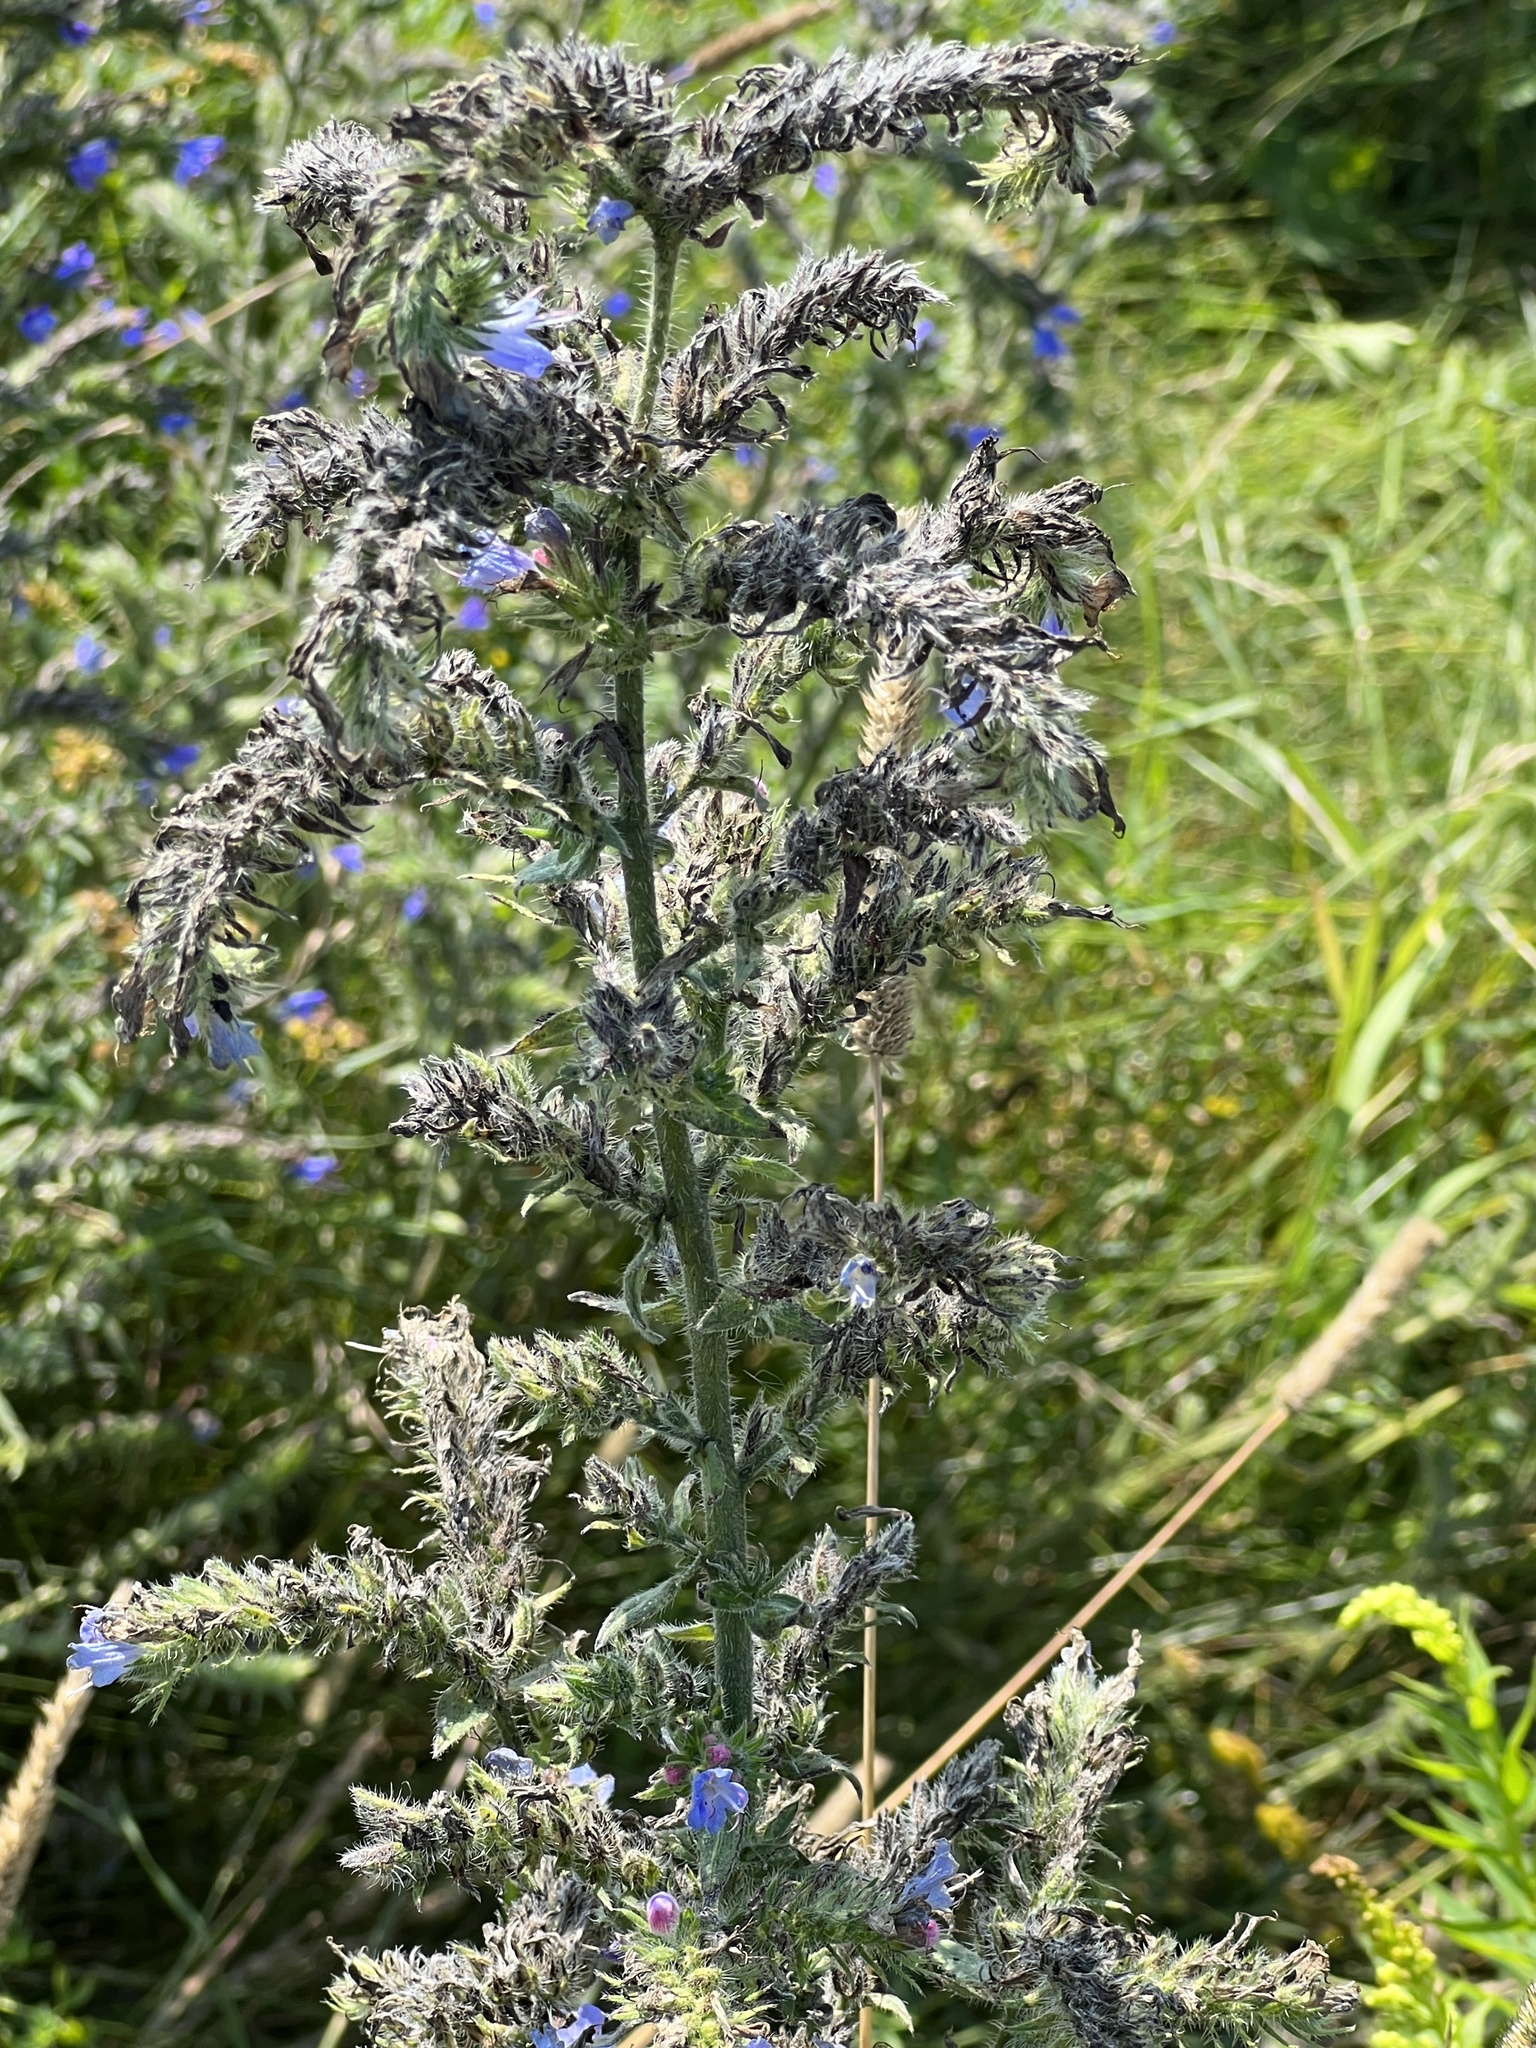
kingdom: Plantae
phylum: Tracheophyta
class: Magnoliopsida
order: Boraginales
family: Boraginaceae
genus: Echium
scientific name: Echium vulgare
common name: Common viper's bugloss
